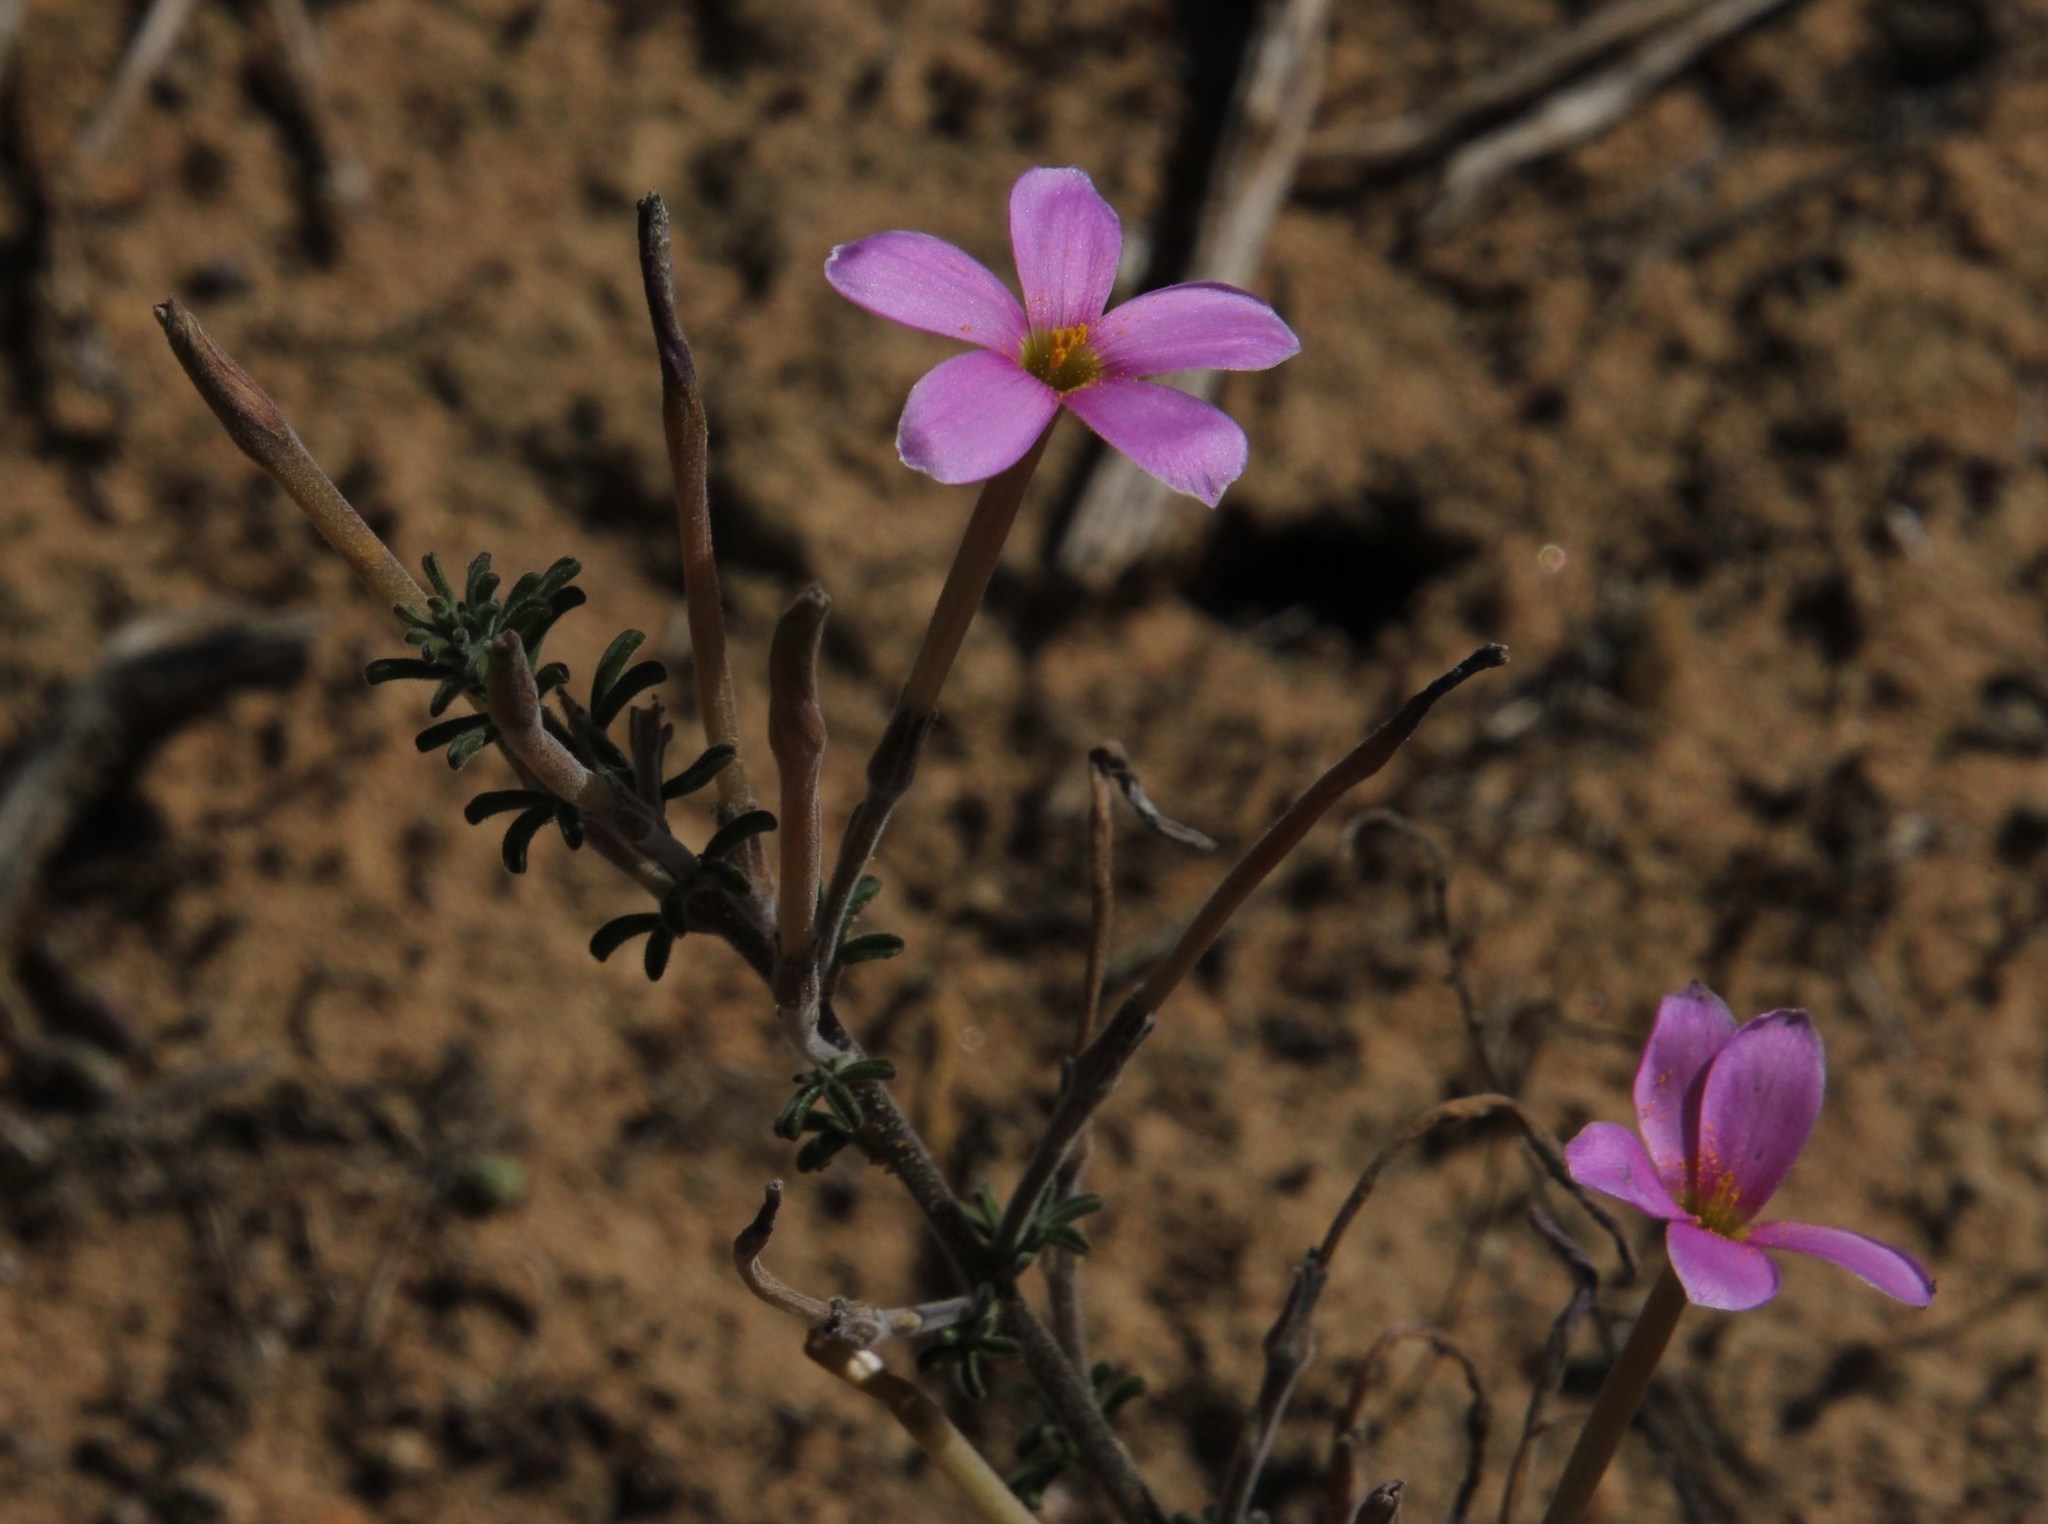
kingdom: Plantae
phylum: Tracheophyta
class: Magnoliopsida
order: Oxalidales
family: Oxalidaceae
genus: Oxalis
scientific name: Oxalis hirta
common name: Tropical woodsorrel
